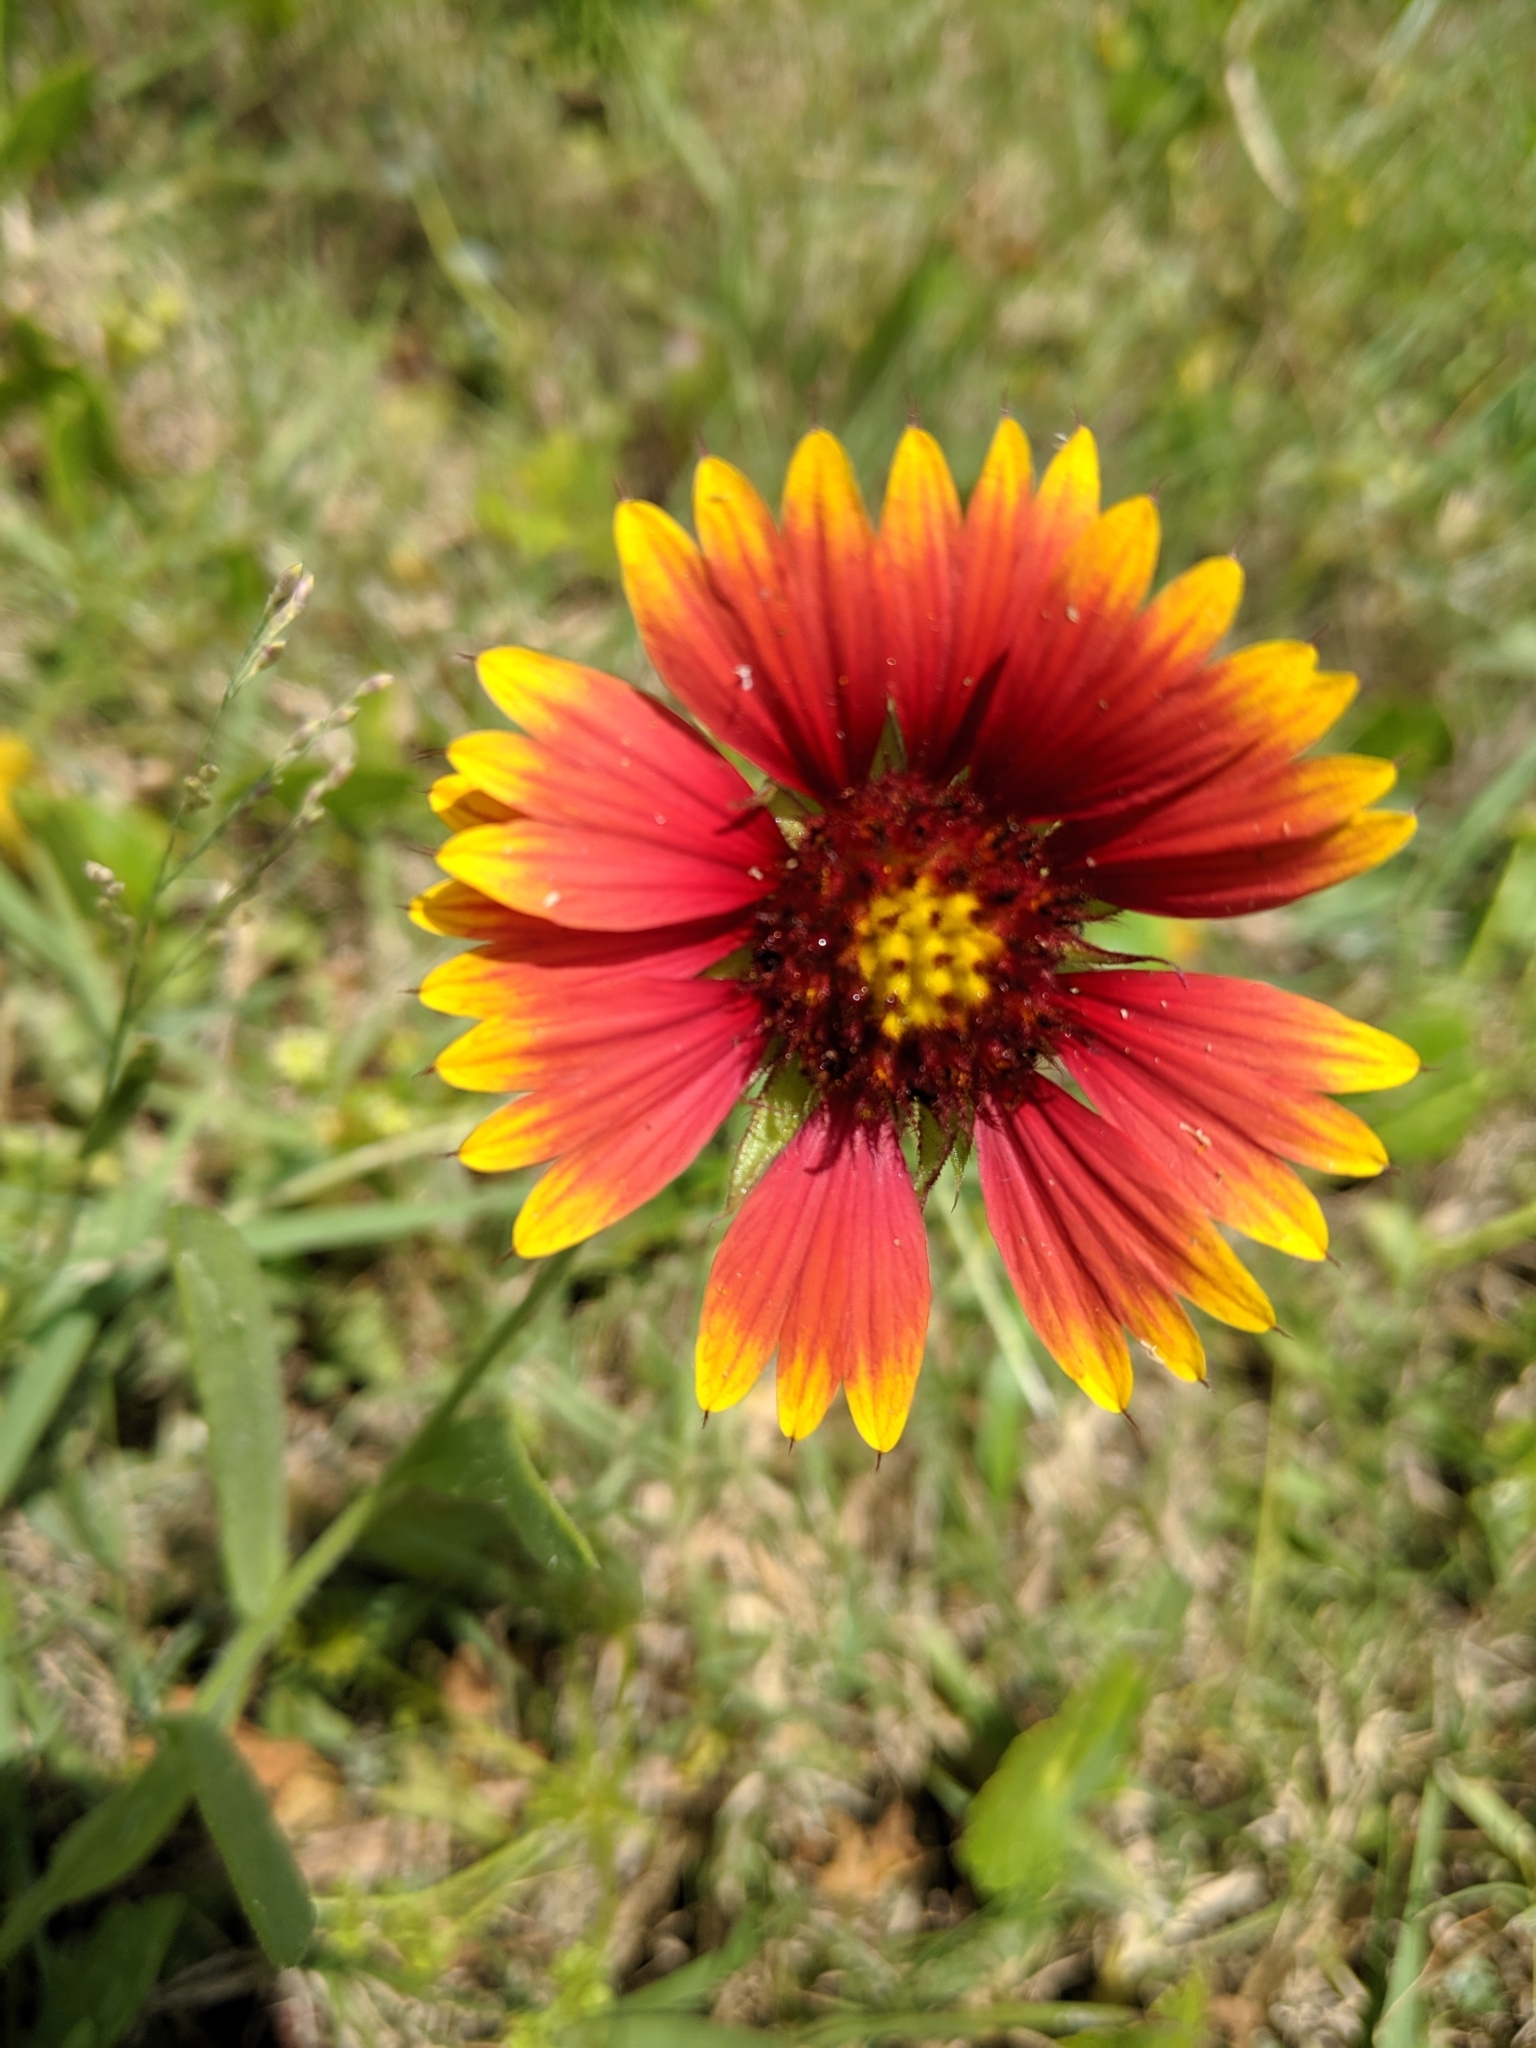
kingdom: Plantae
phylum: Tracheophyta
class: Magnoliopsida
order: Asterales
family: Asteraceae
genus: Gaillardia
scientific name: Gaillardia pulchella
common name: Firewheel
